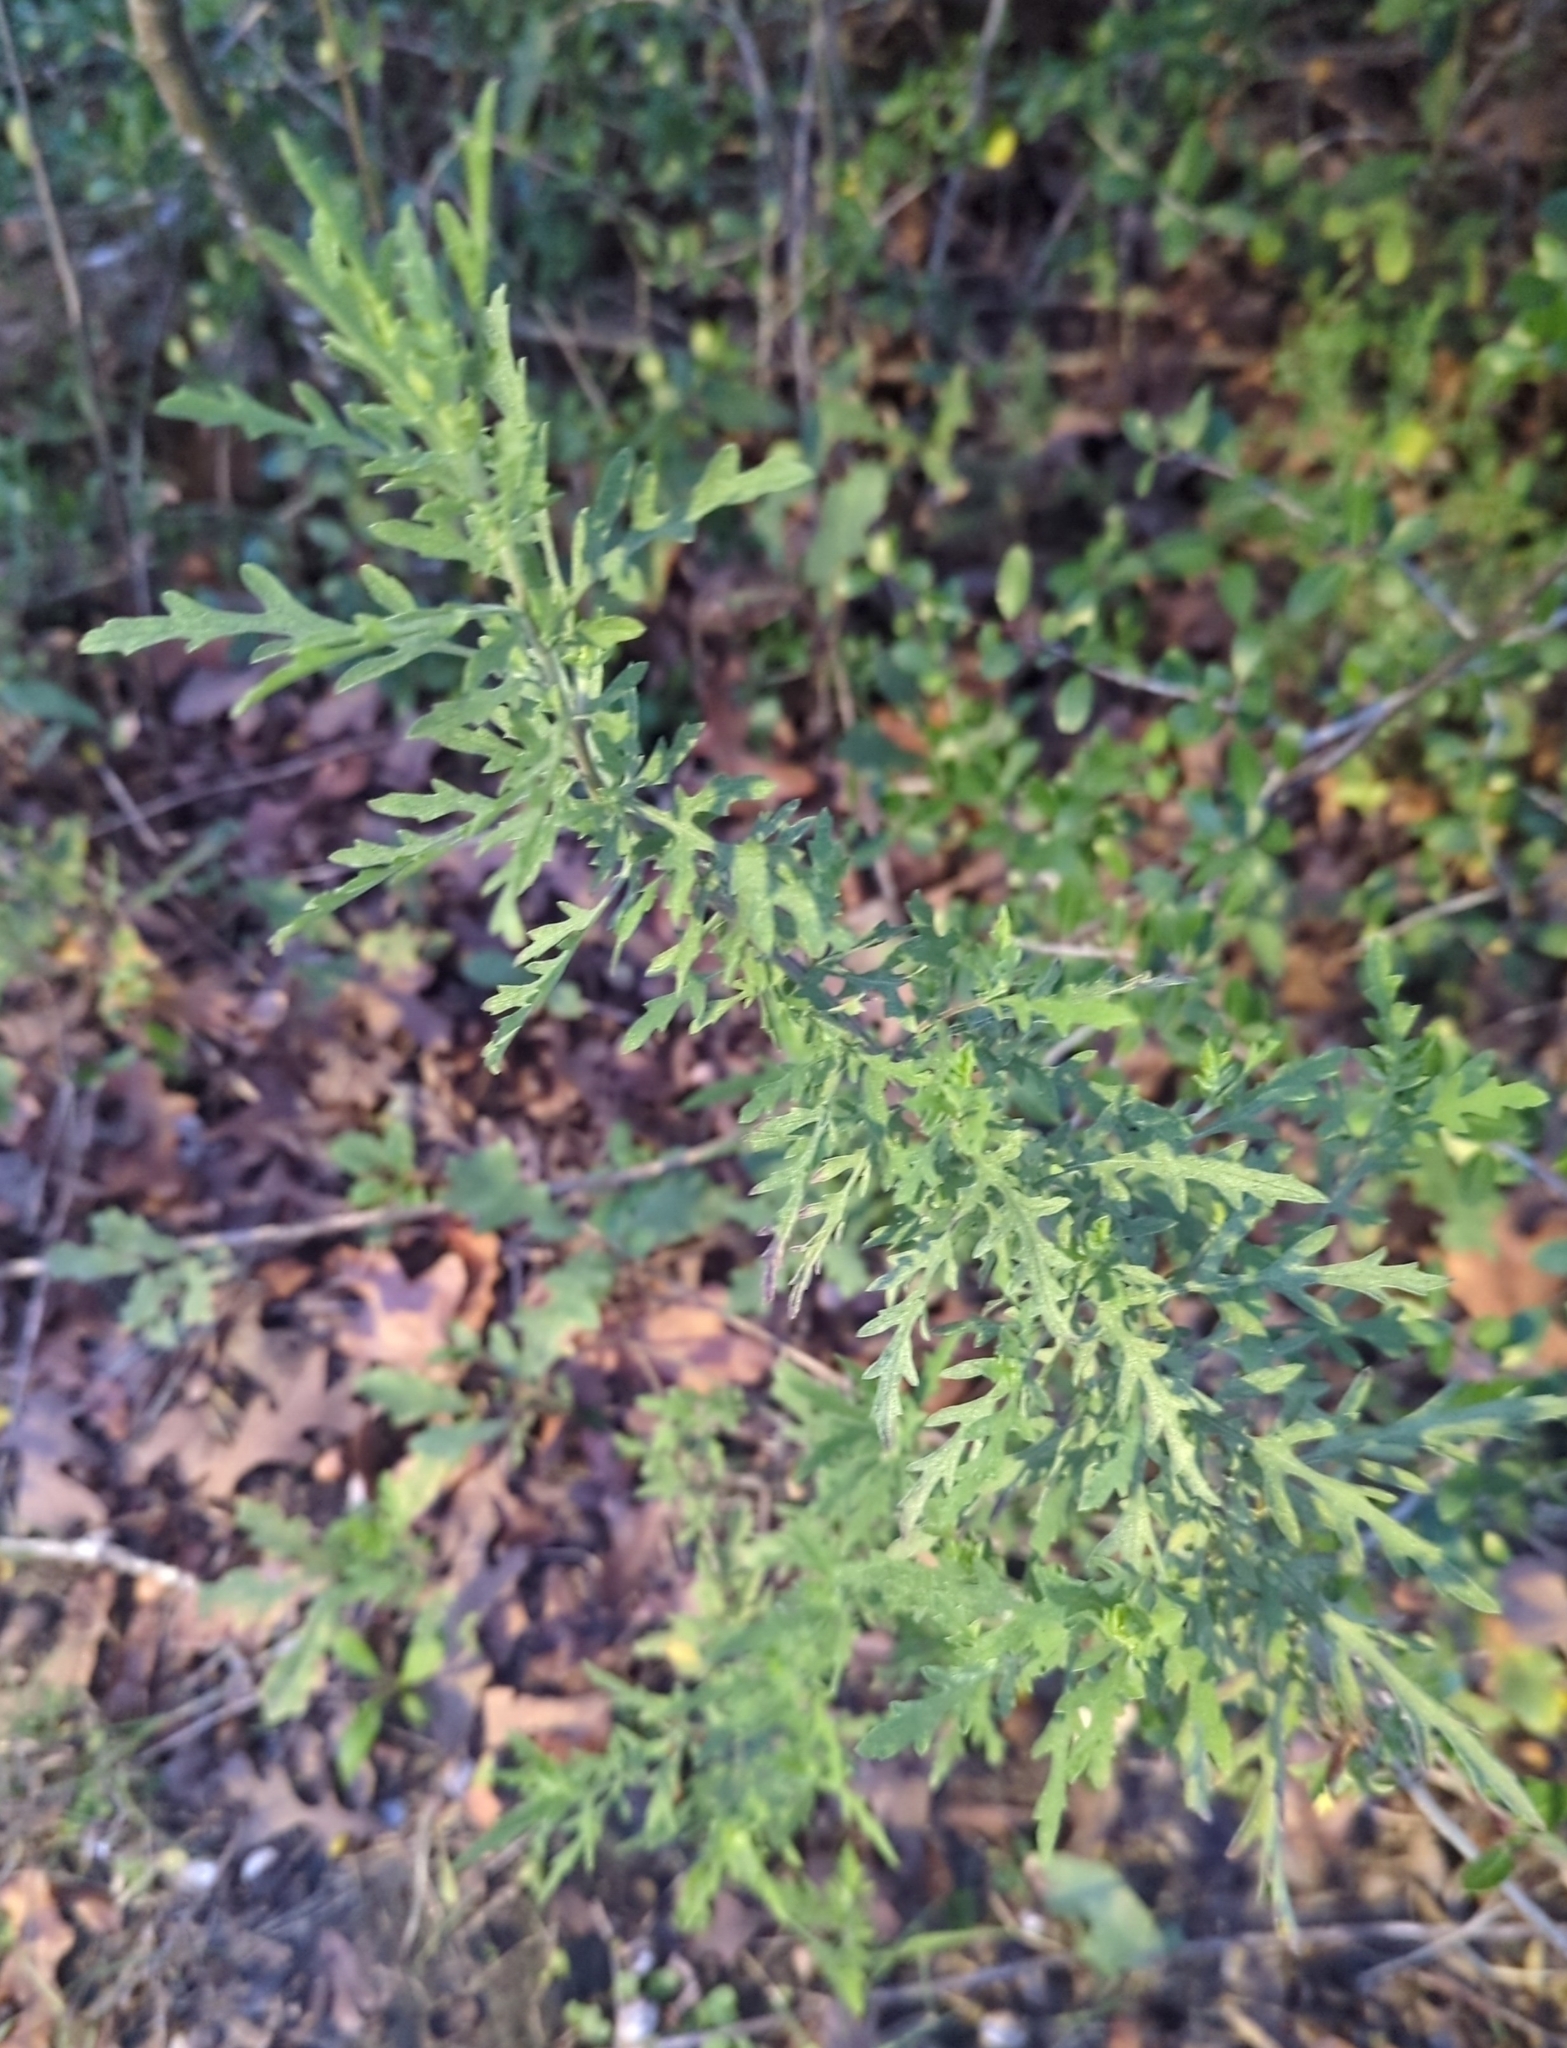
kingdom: Plantae
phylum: Tracheophyta
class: Magnoliopsida
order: Asterales
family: Asteraceae
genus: Ambrosia
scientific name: Ambrosia psilostachya
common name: Perennial ragweed
